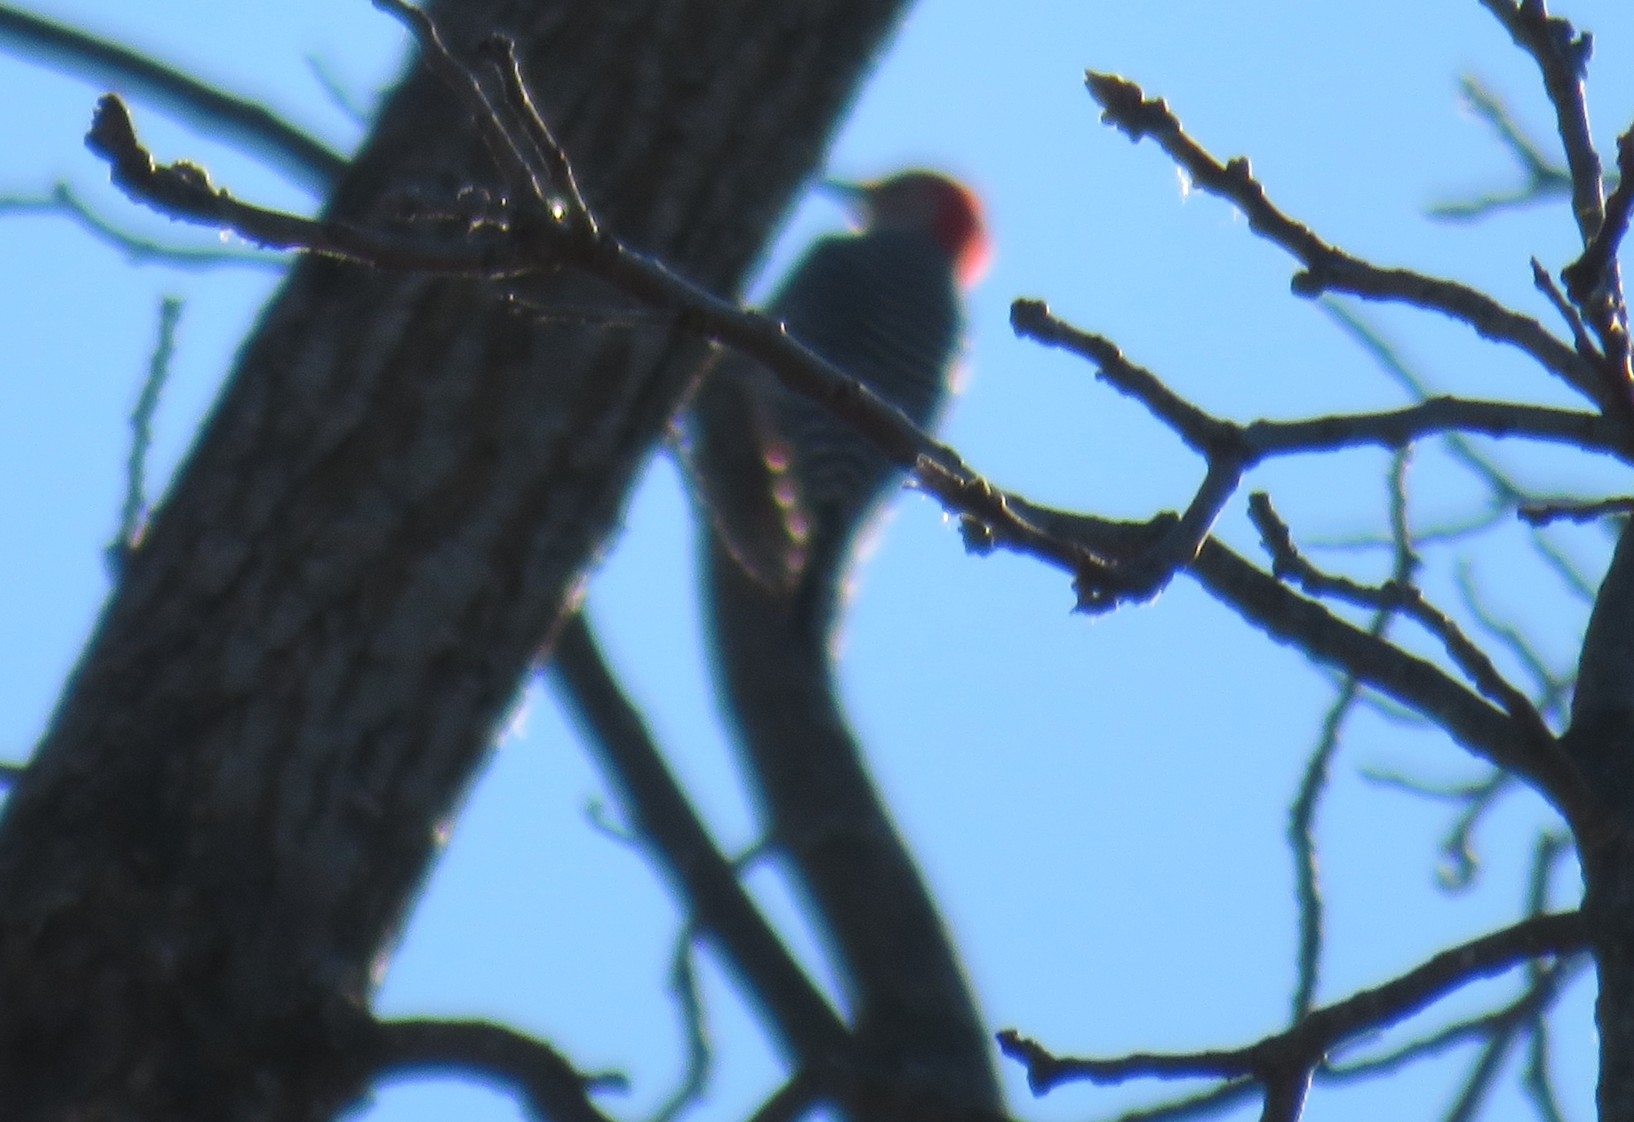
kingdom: Animalia
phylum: Chordata
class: Aves
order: Piciformes
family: Picidae
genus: Melanerpes
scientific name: Melanerpes carolinus
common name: Red-bellied woodpecker
